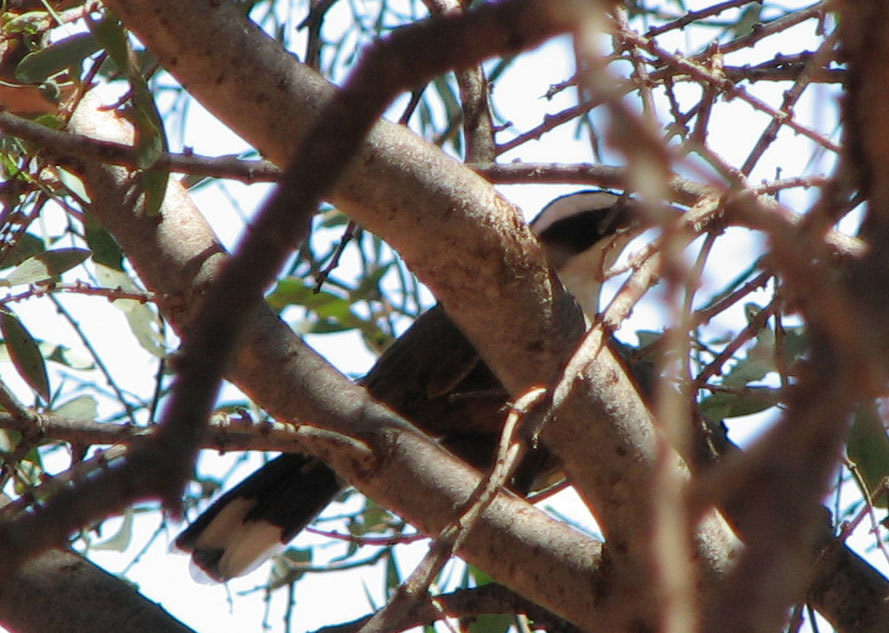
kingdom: Animalia
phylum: Chordata
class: Aves
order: Passeriformes
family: Pomatostomidae
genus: Pomatostomus
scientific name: Pomatostomus halli
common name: Hall's babbler
